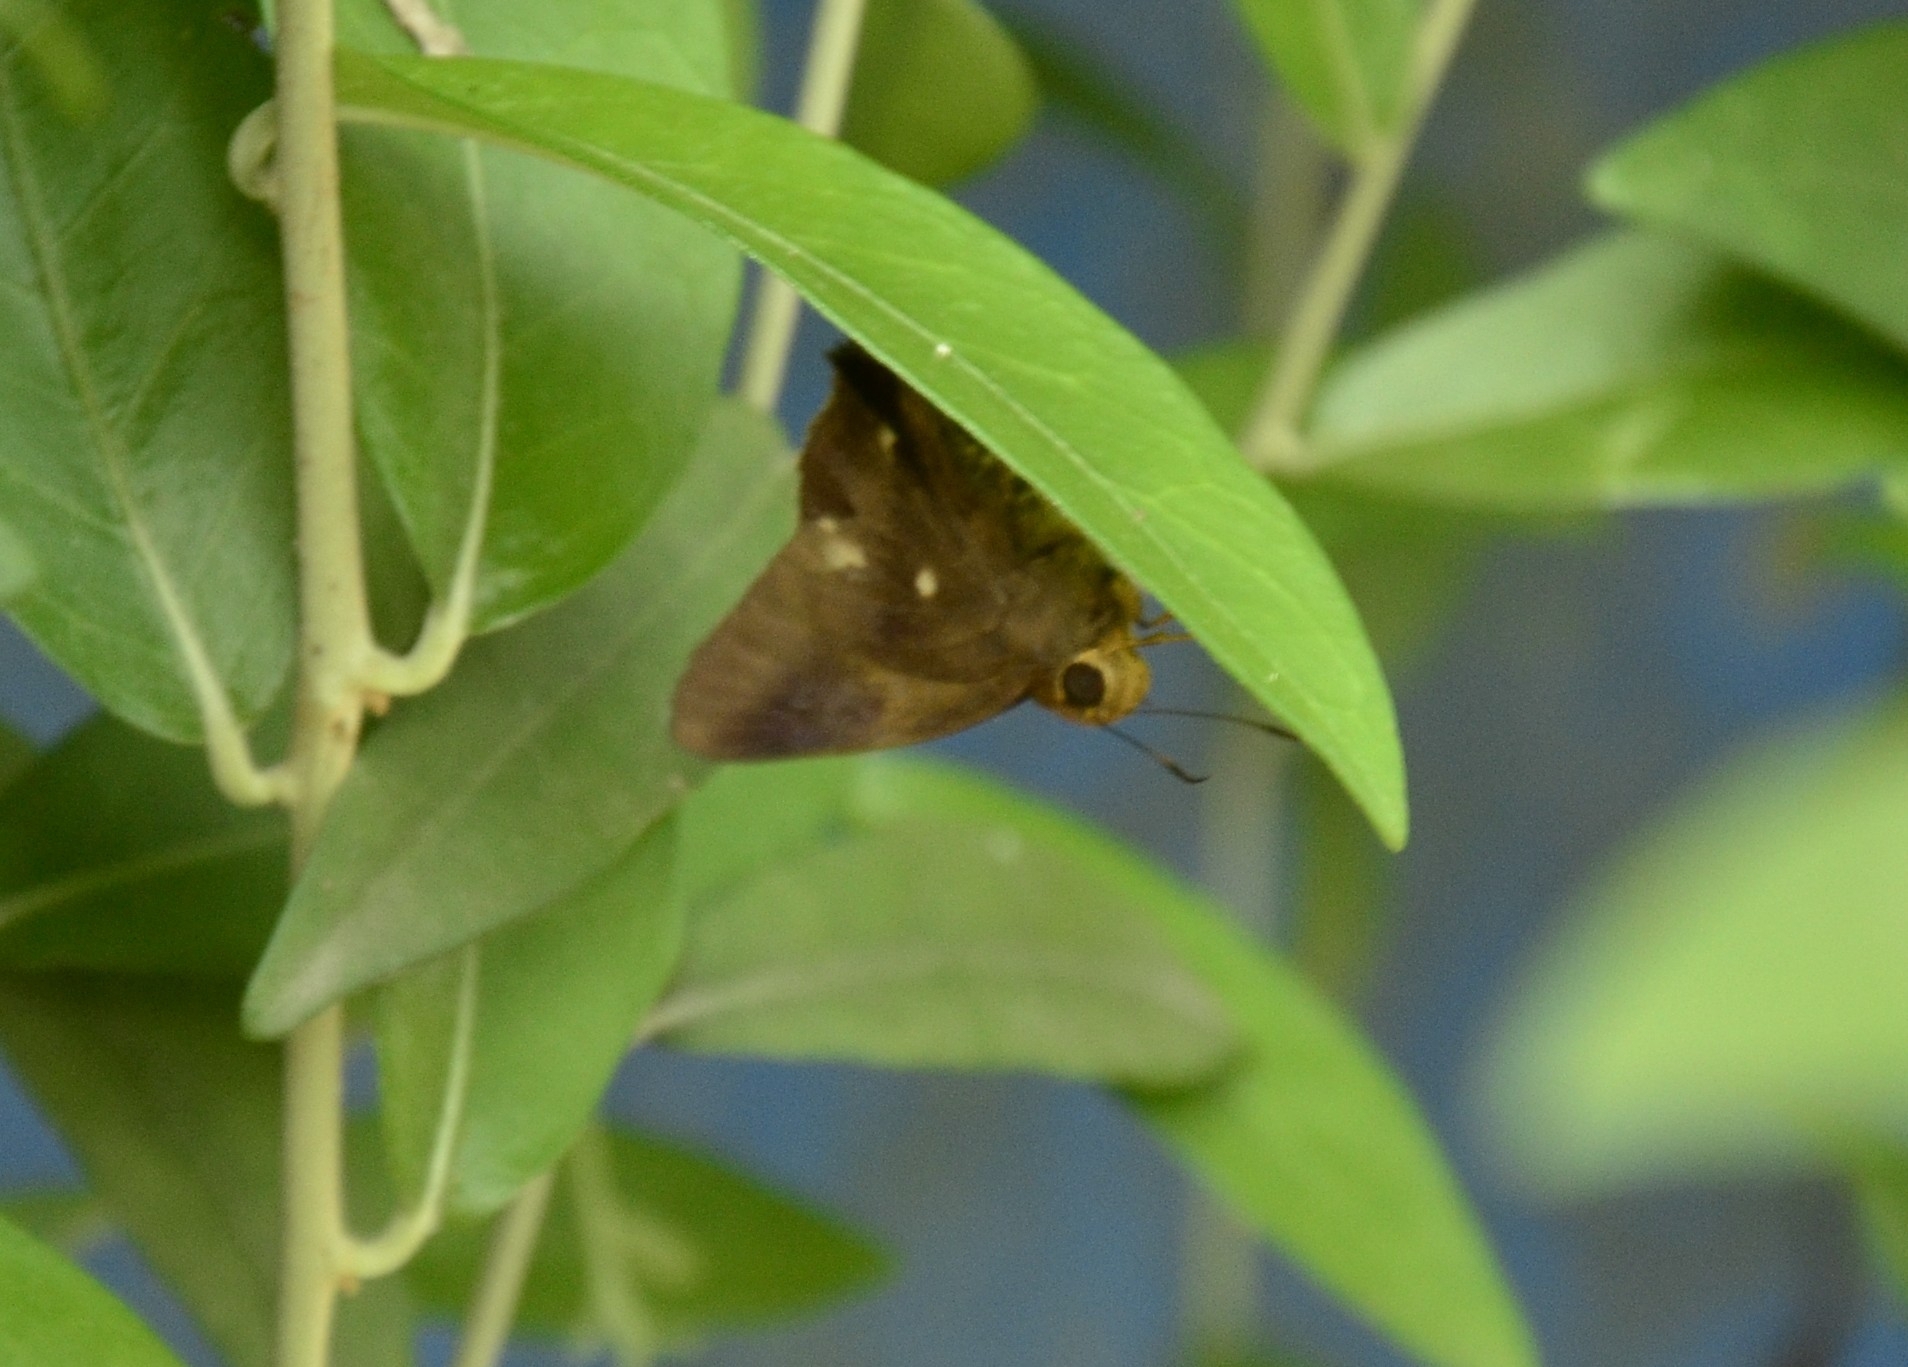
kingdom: Animalia
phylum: Arthropoda
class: Insecta
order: Lepidoptera
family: Hesperiidae
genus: Hasora
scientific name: Hasora badra
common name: Common awl
